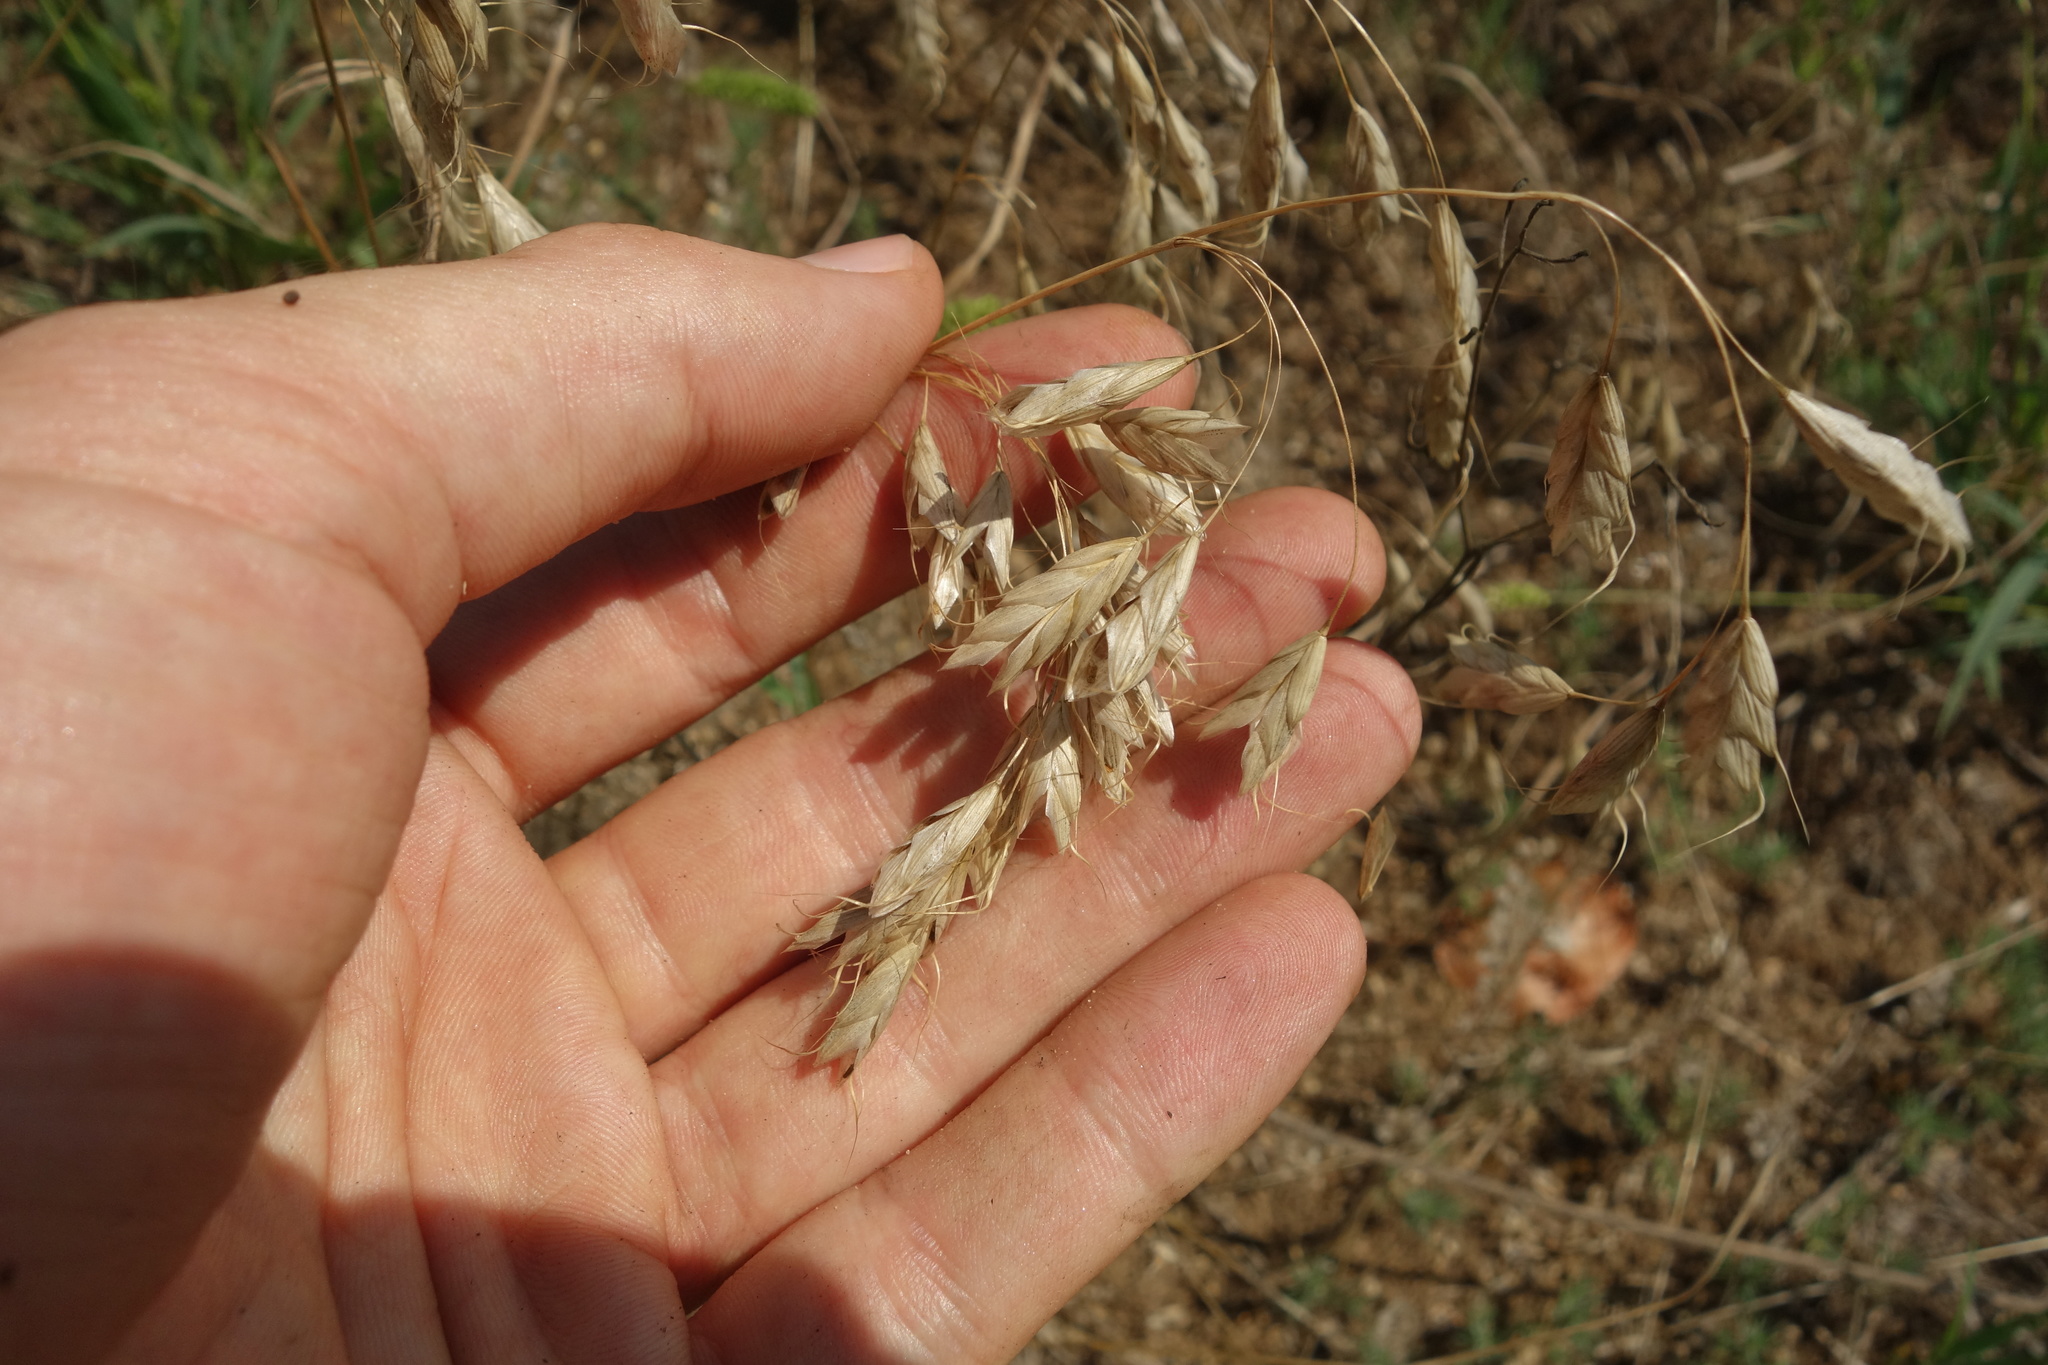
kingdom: Plantae
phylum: Tracheophyta
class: Liliopsida
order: Poales
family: Poaceae
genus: Bromus
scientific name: Bromus squarrosus
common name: Corn brome
